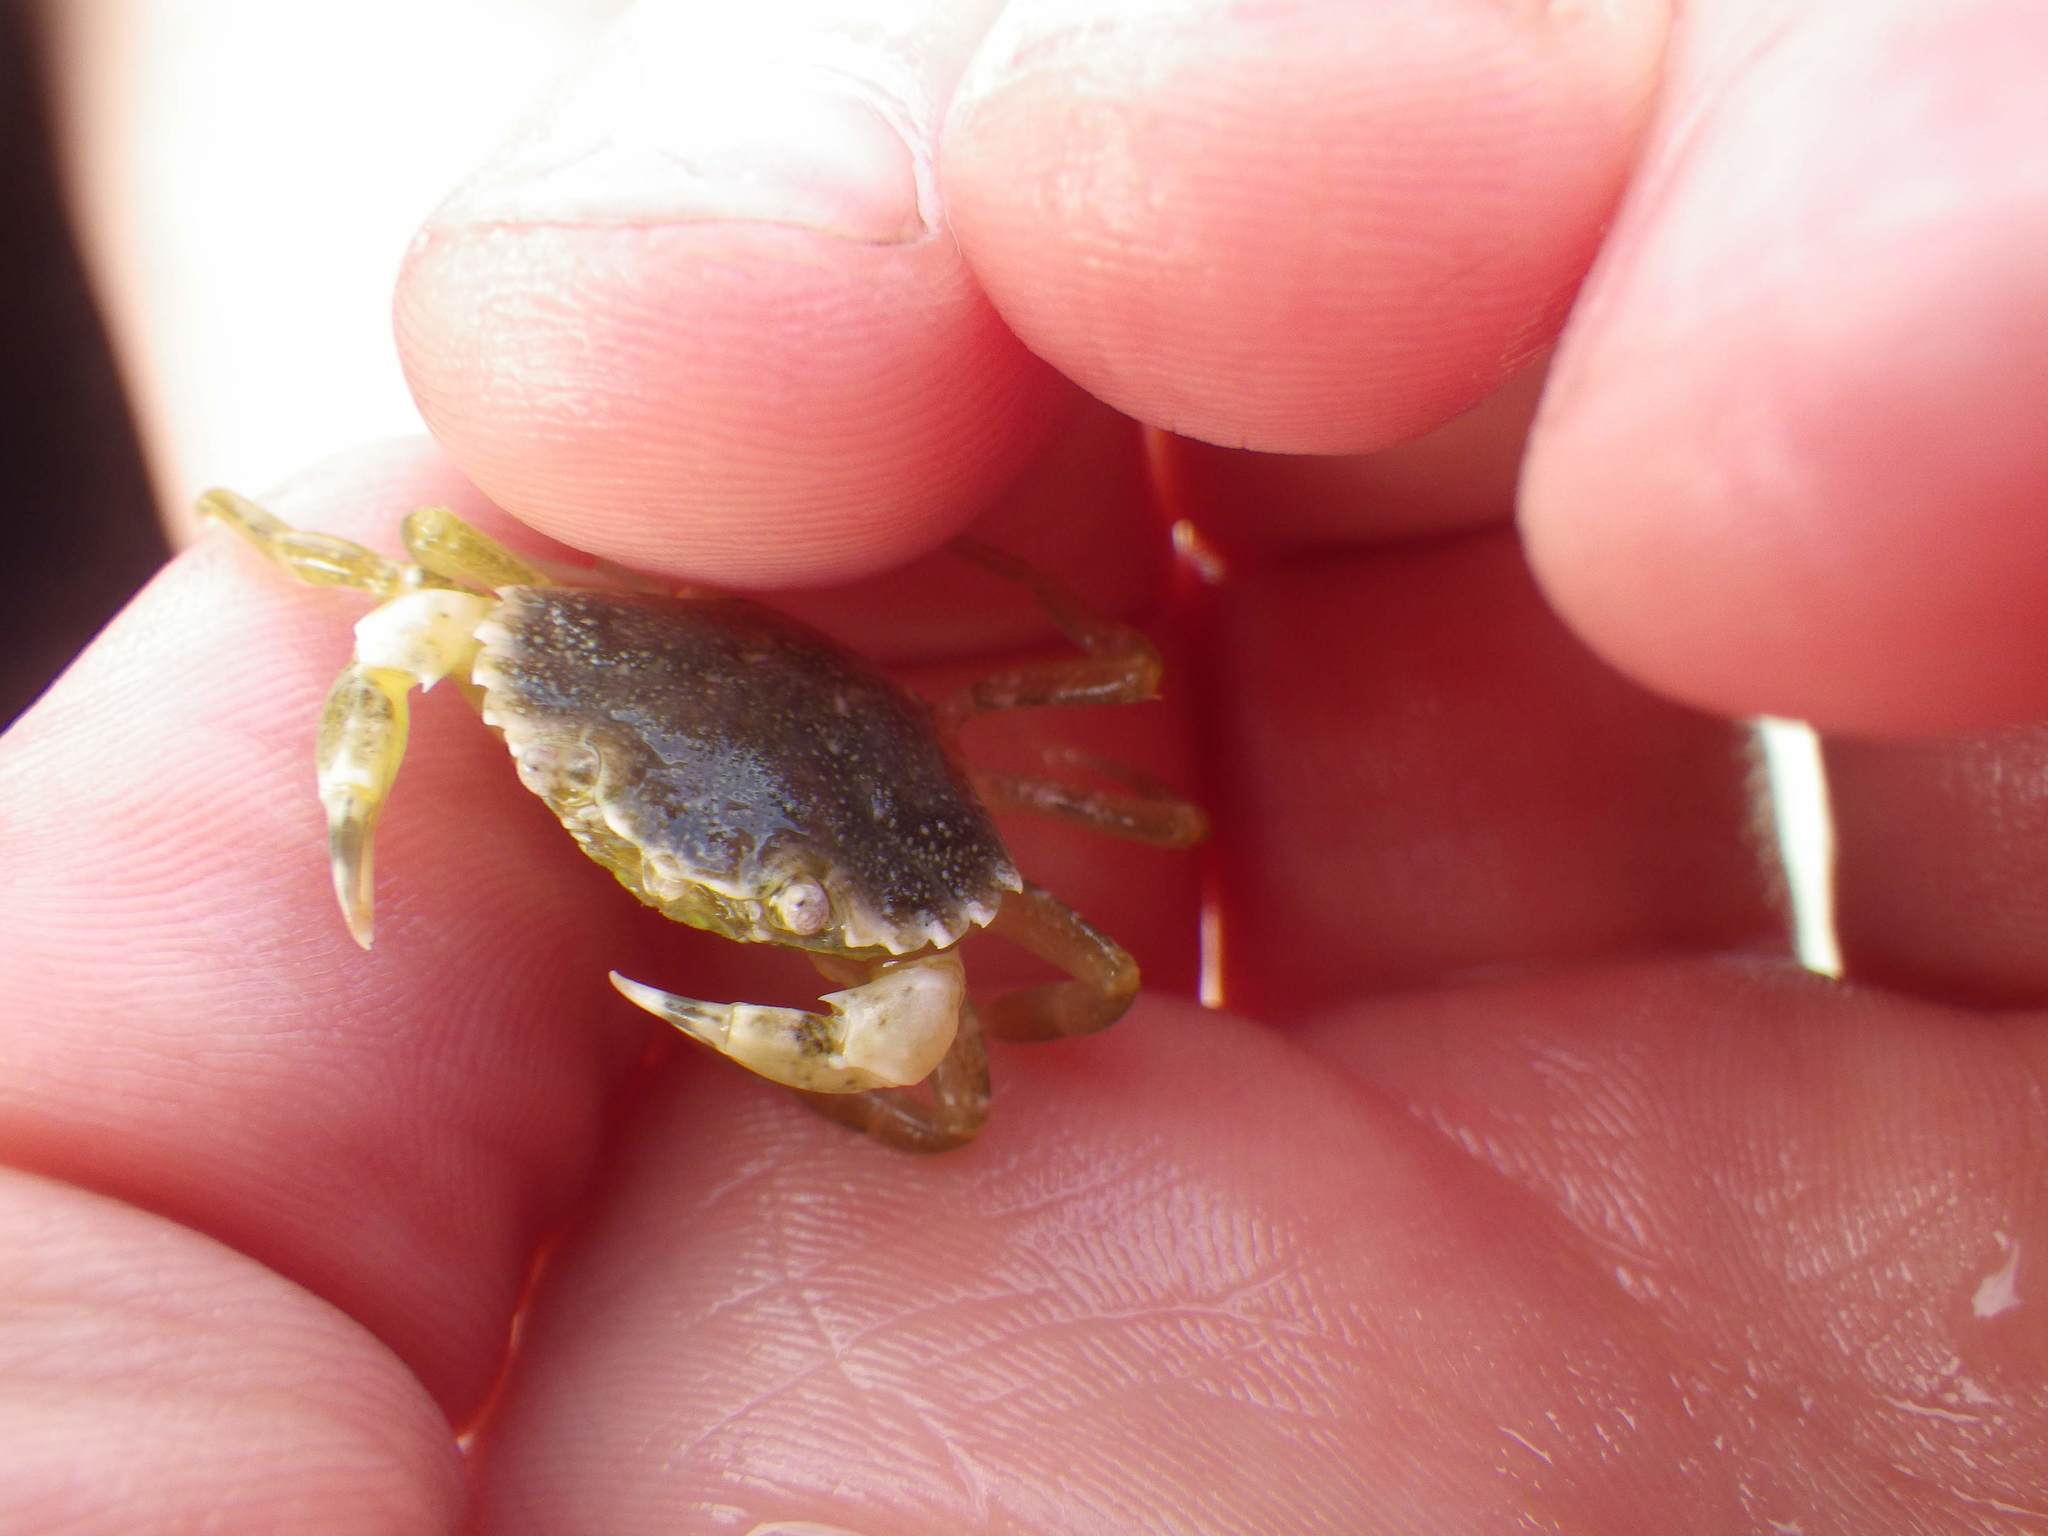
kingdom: Animalia
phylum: Arthropoda
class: Malacostraca
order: Decapoda
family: Carcinidae
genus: Carcinus
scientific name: Carcinus maenas
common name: European green crab
